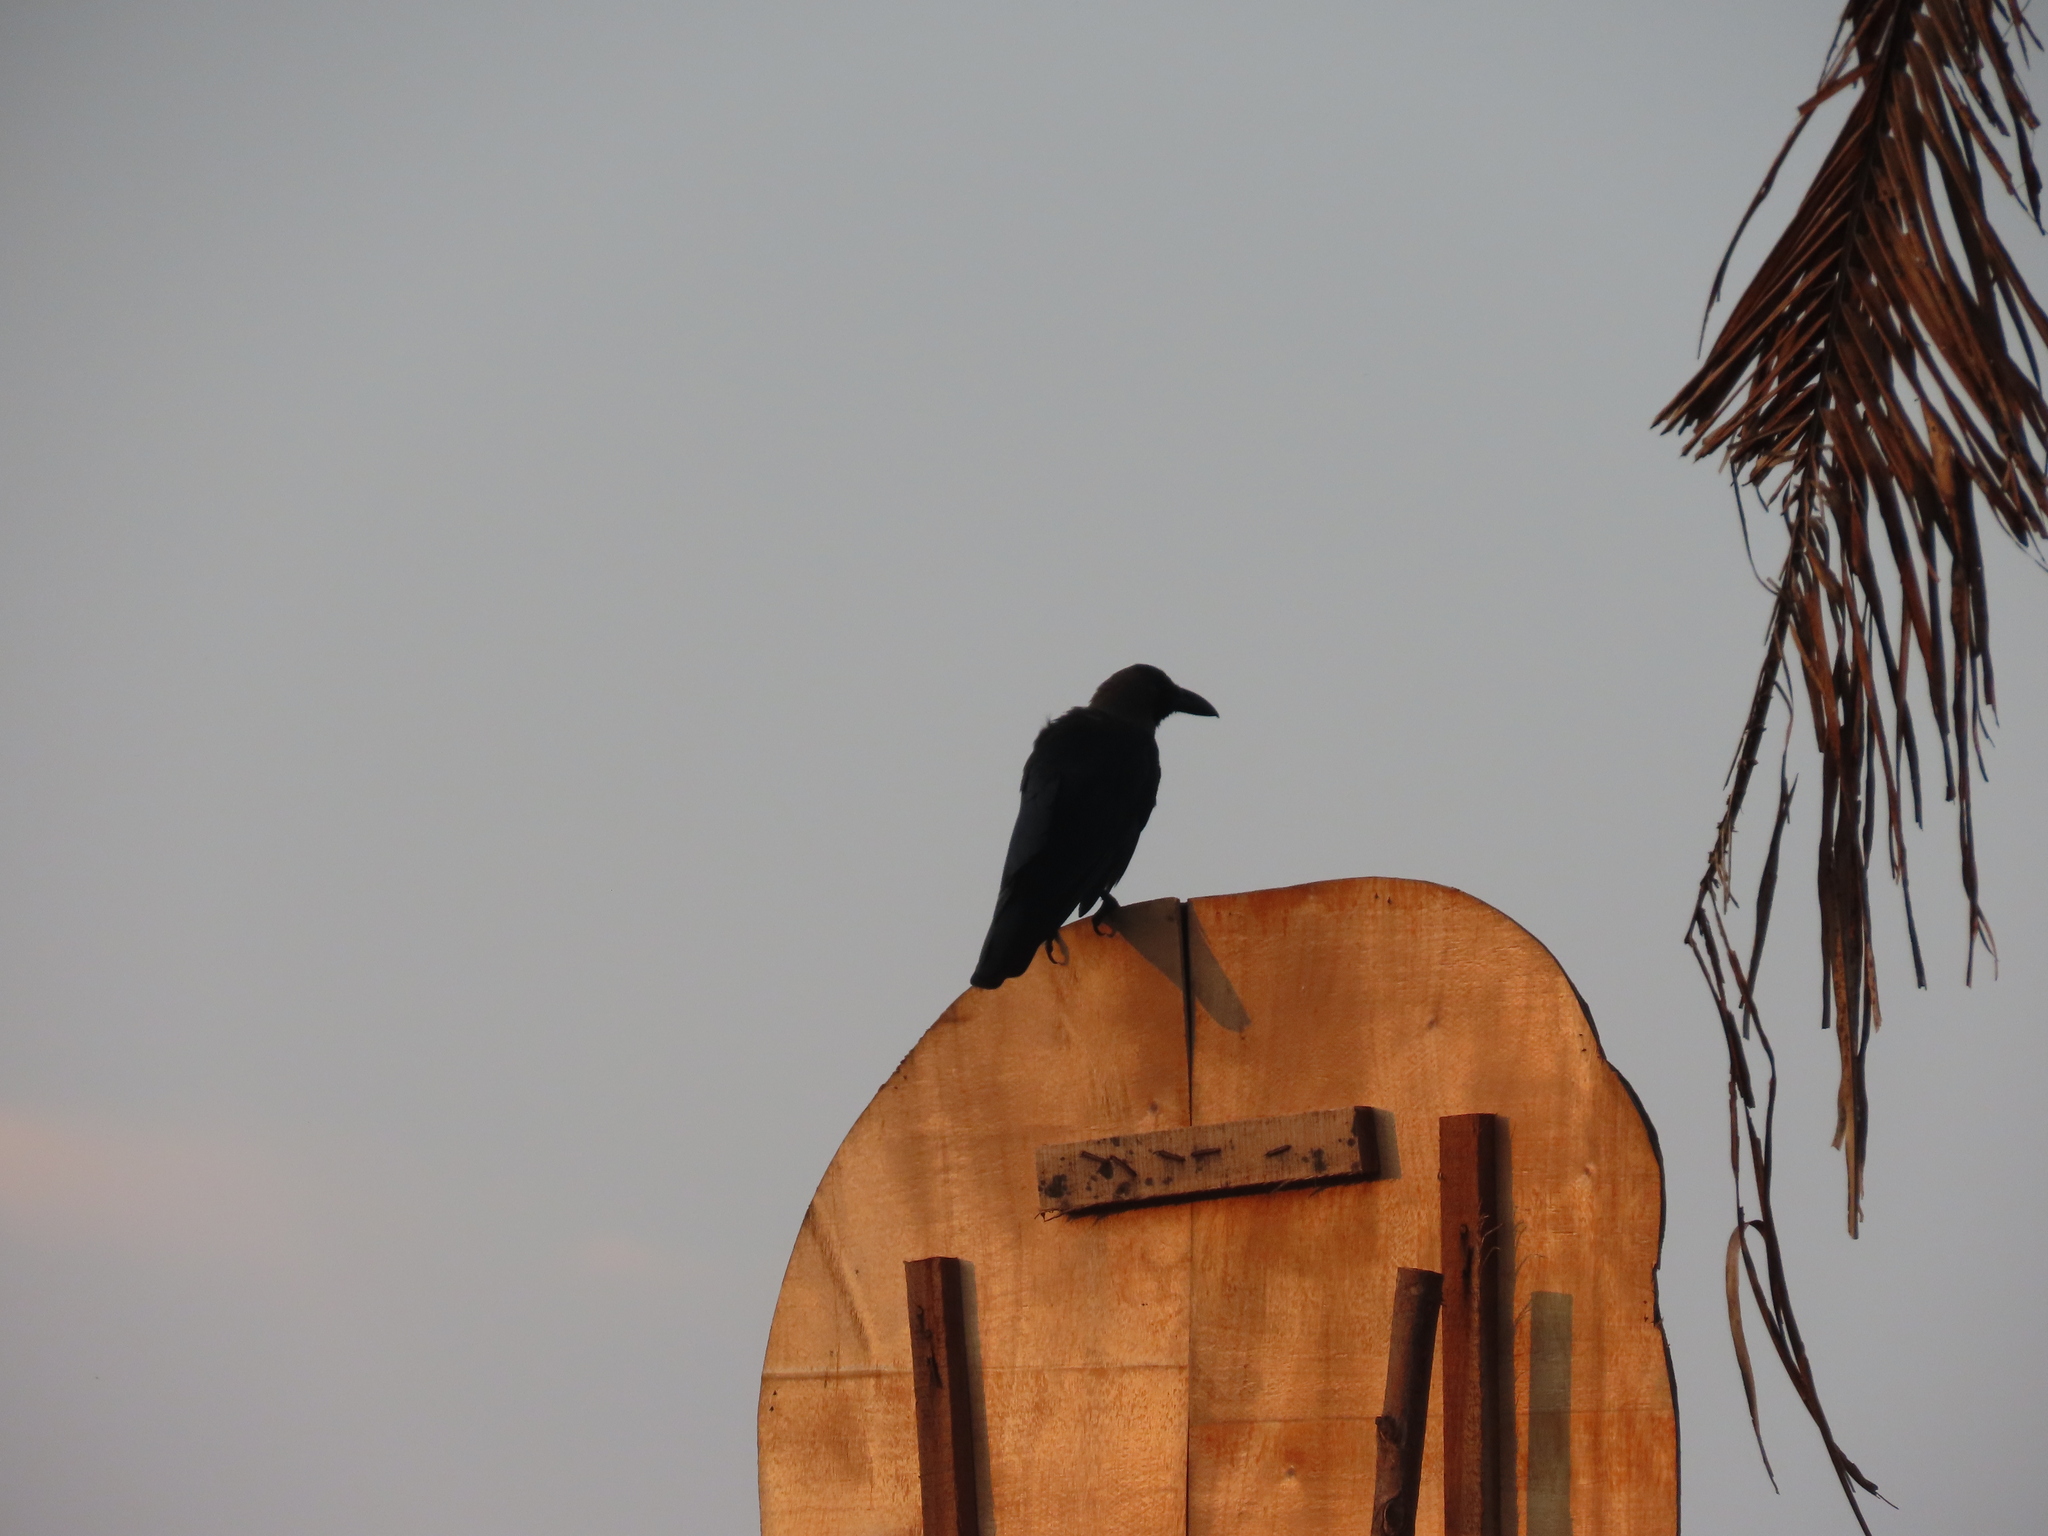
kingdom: Animalia
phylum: Chordata
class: Aves
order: Passeriformes
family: Corvidae
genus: Corvus
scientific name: Corvus splendens
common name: House crow
